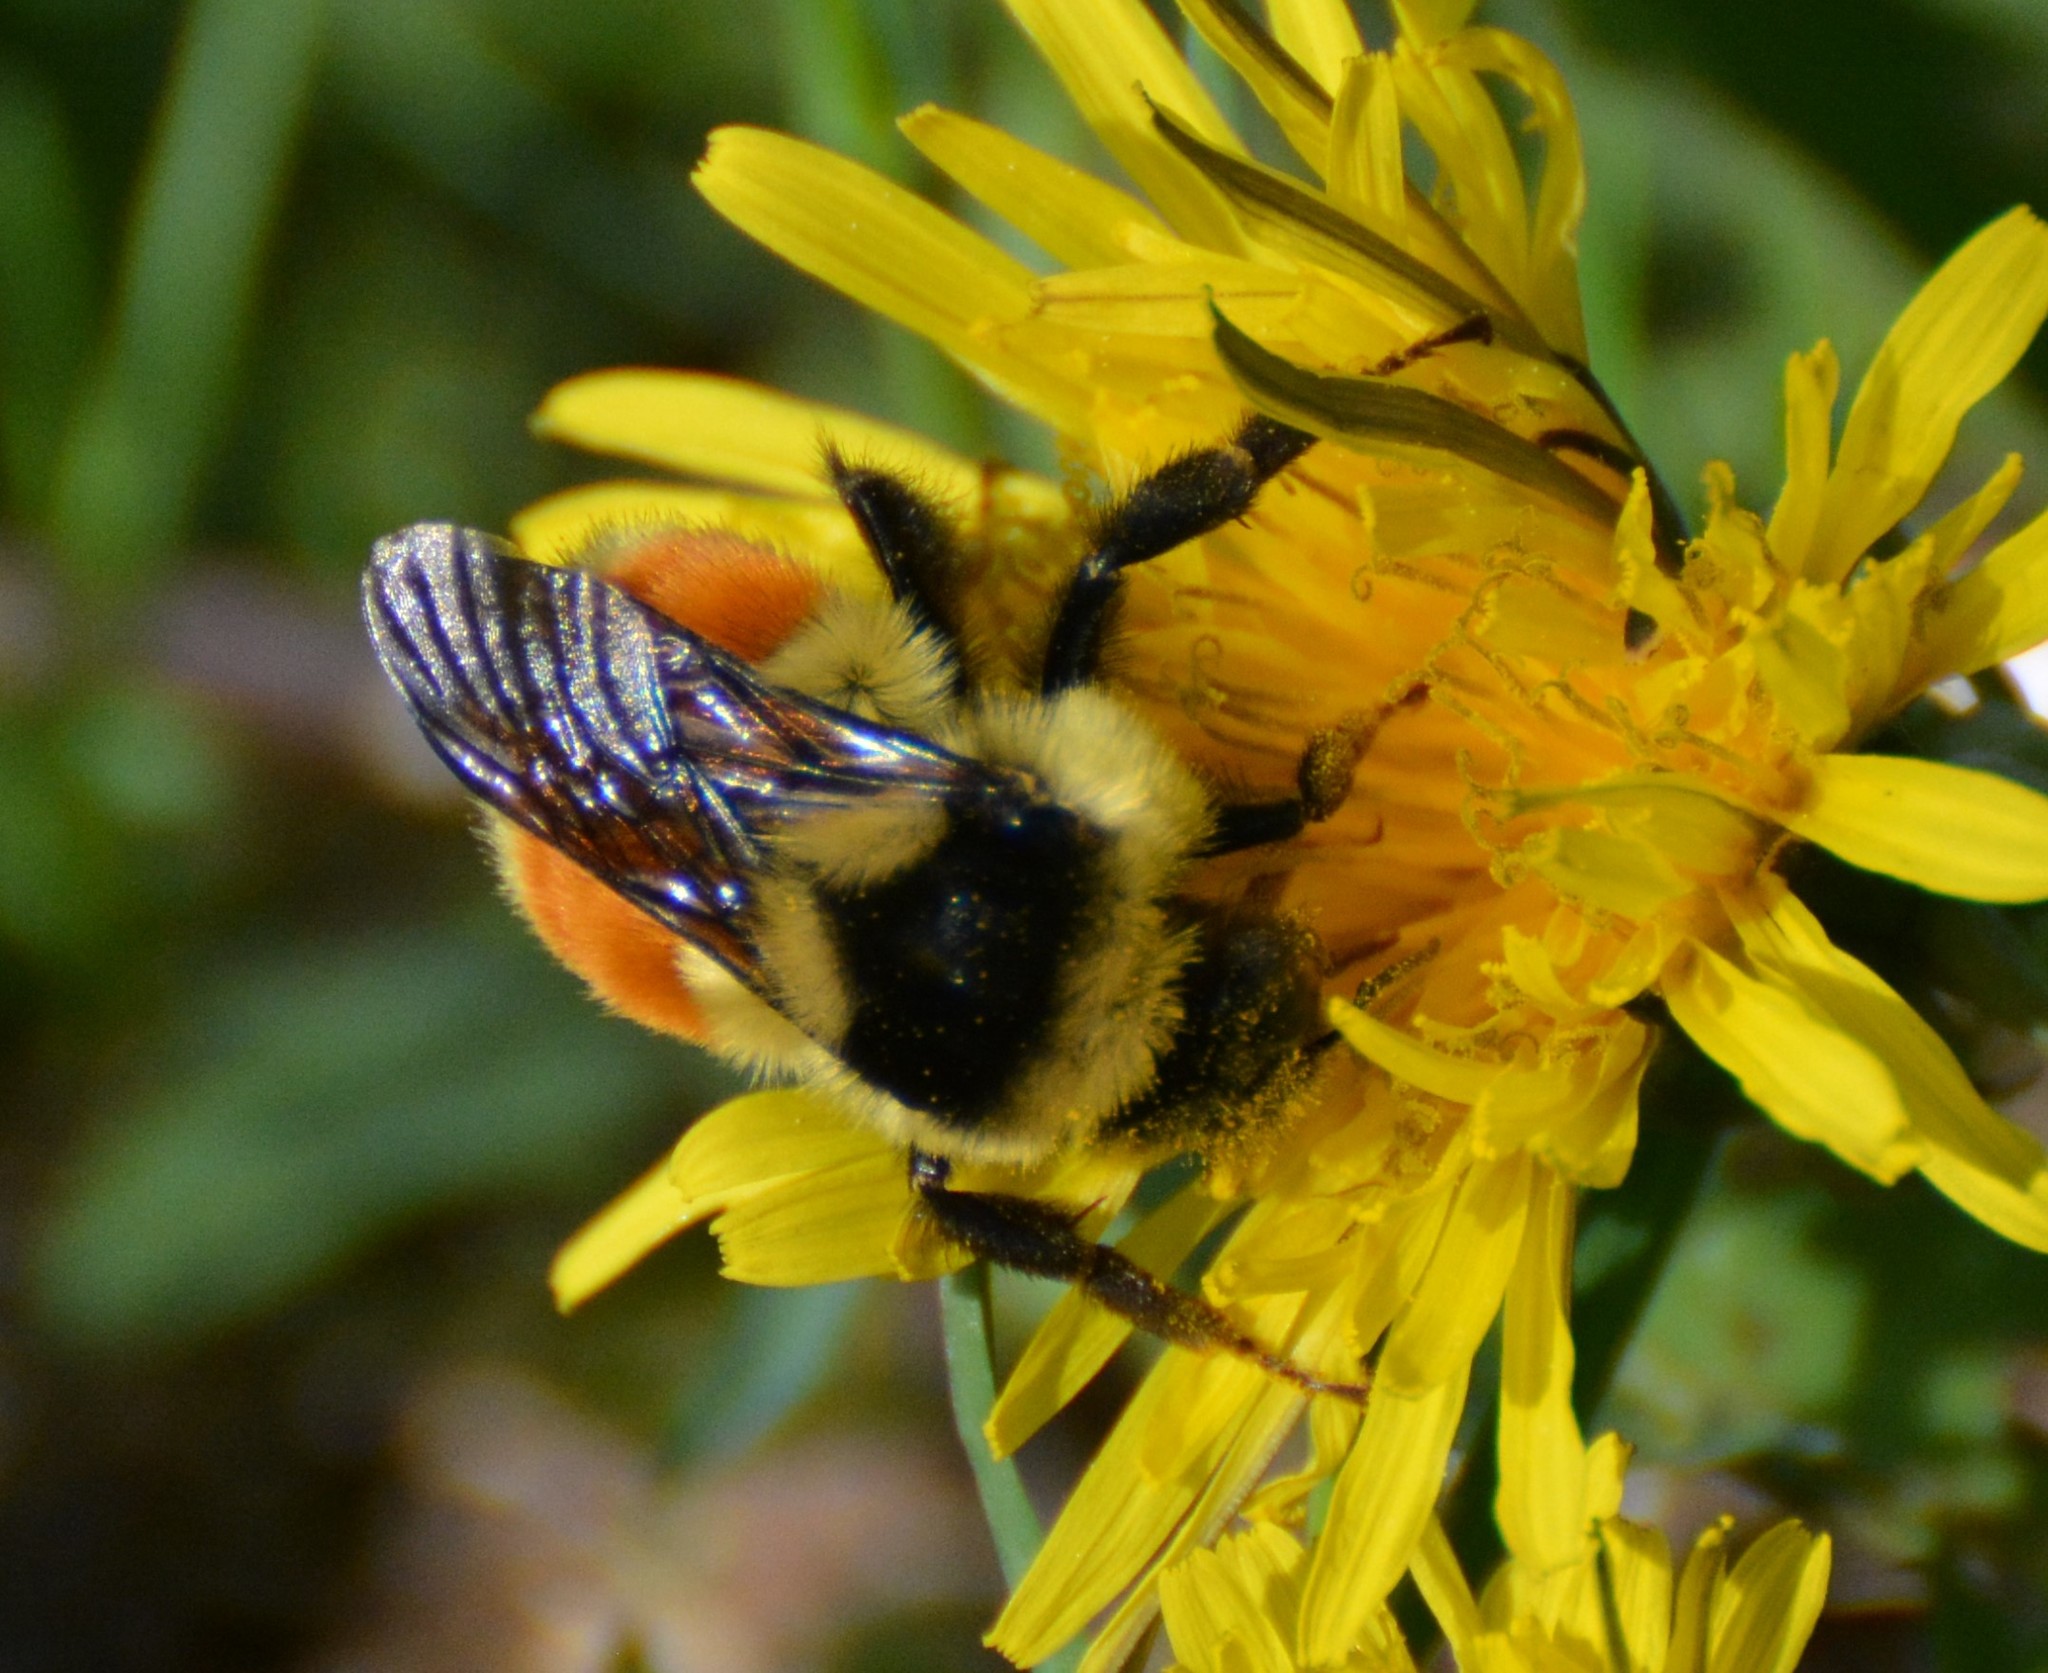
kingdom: Animalia
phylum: Arthropoda
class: Insecta
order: Hymenoptera
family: Apidae
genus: Bombus
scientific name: Bombus ternarius
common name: Tri-colored bumble bee
